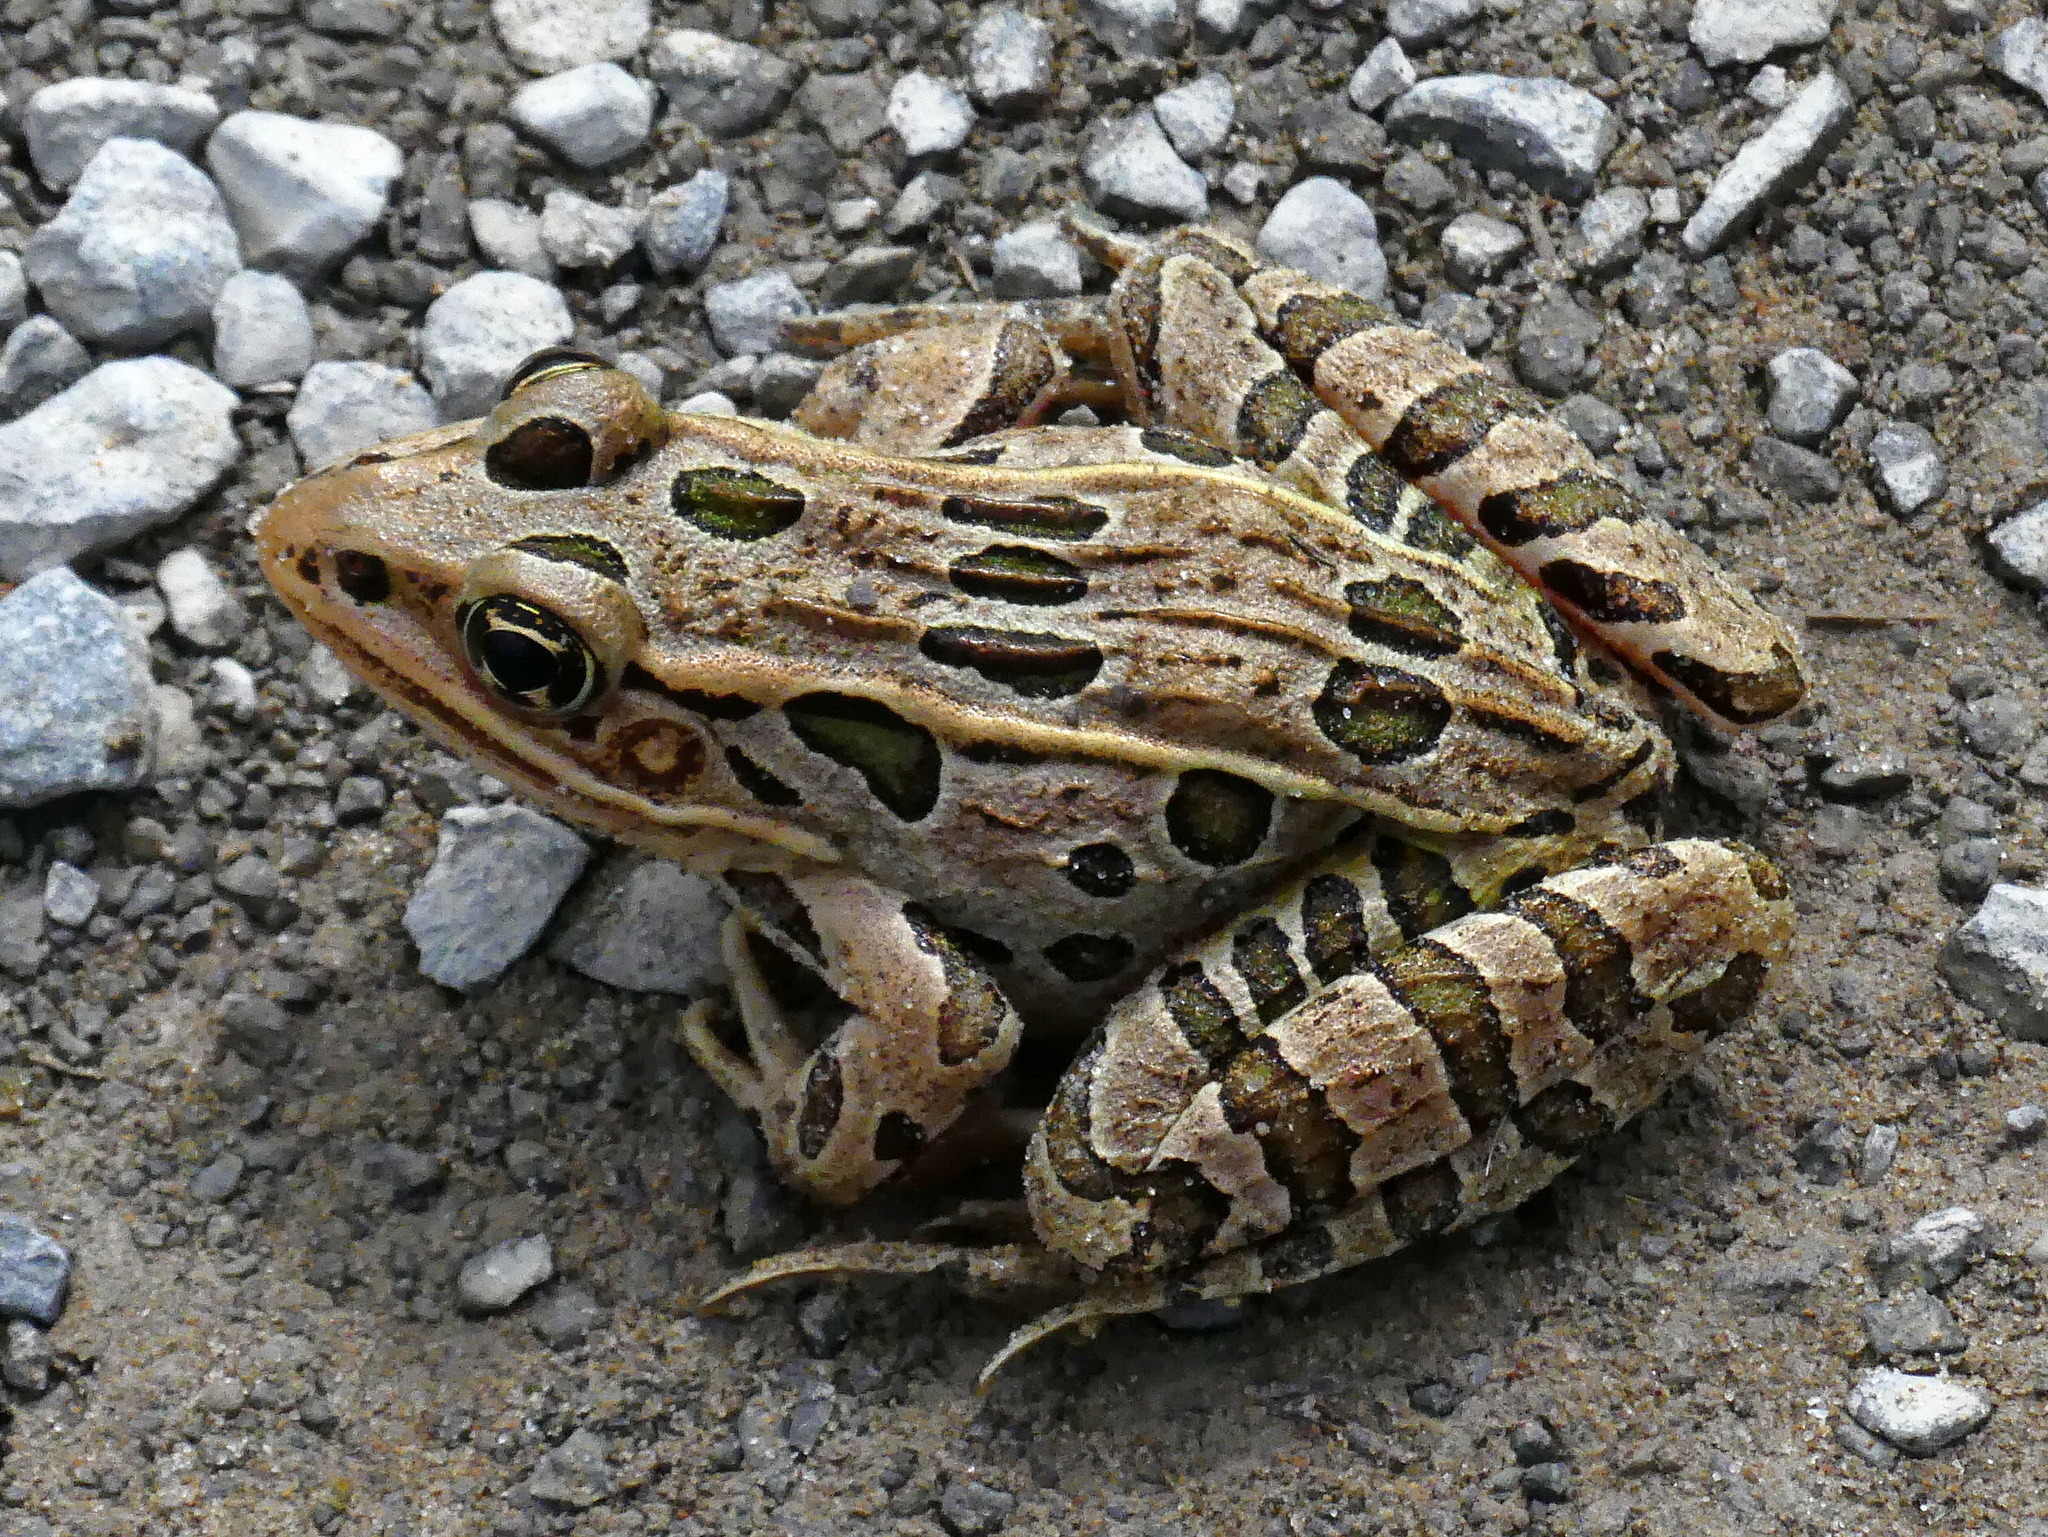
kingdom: Animalia
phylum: Chordata
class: Amphibia
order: Anura
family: Ranidae
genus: Lithobates
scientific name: Lithobates pipiens
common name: Northern leopard frog
